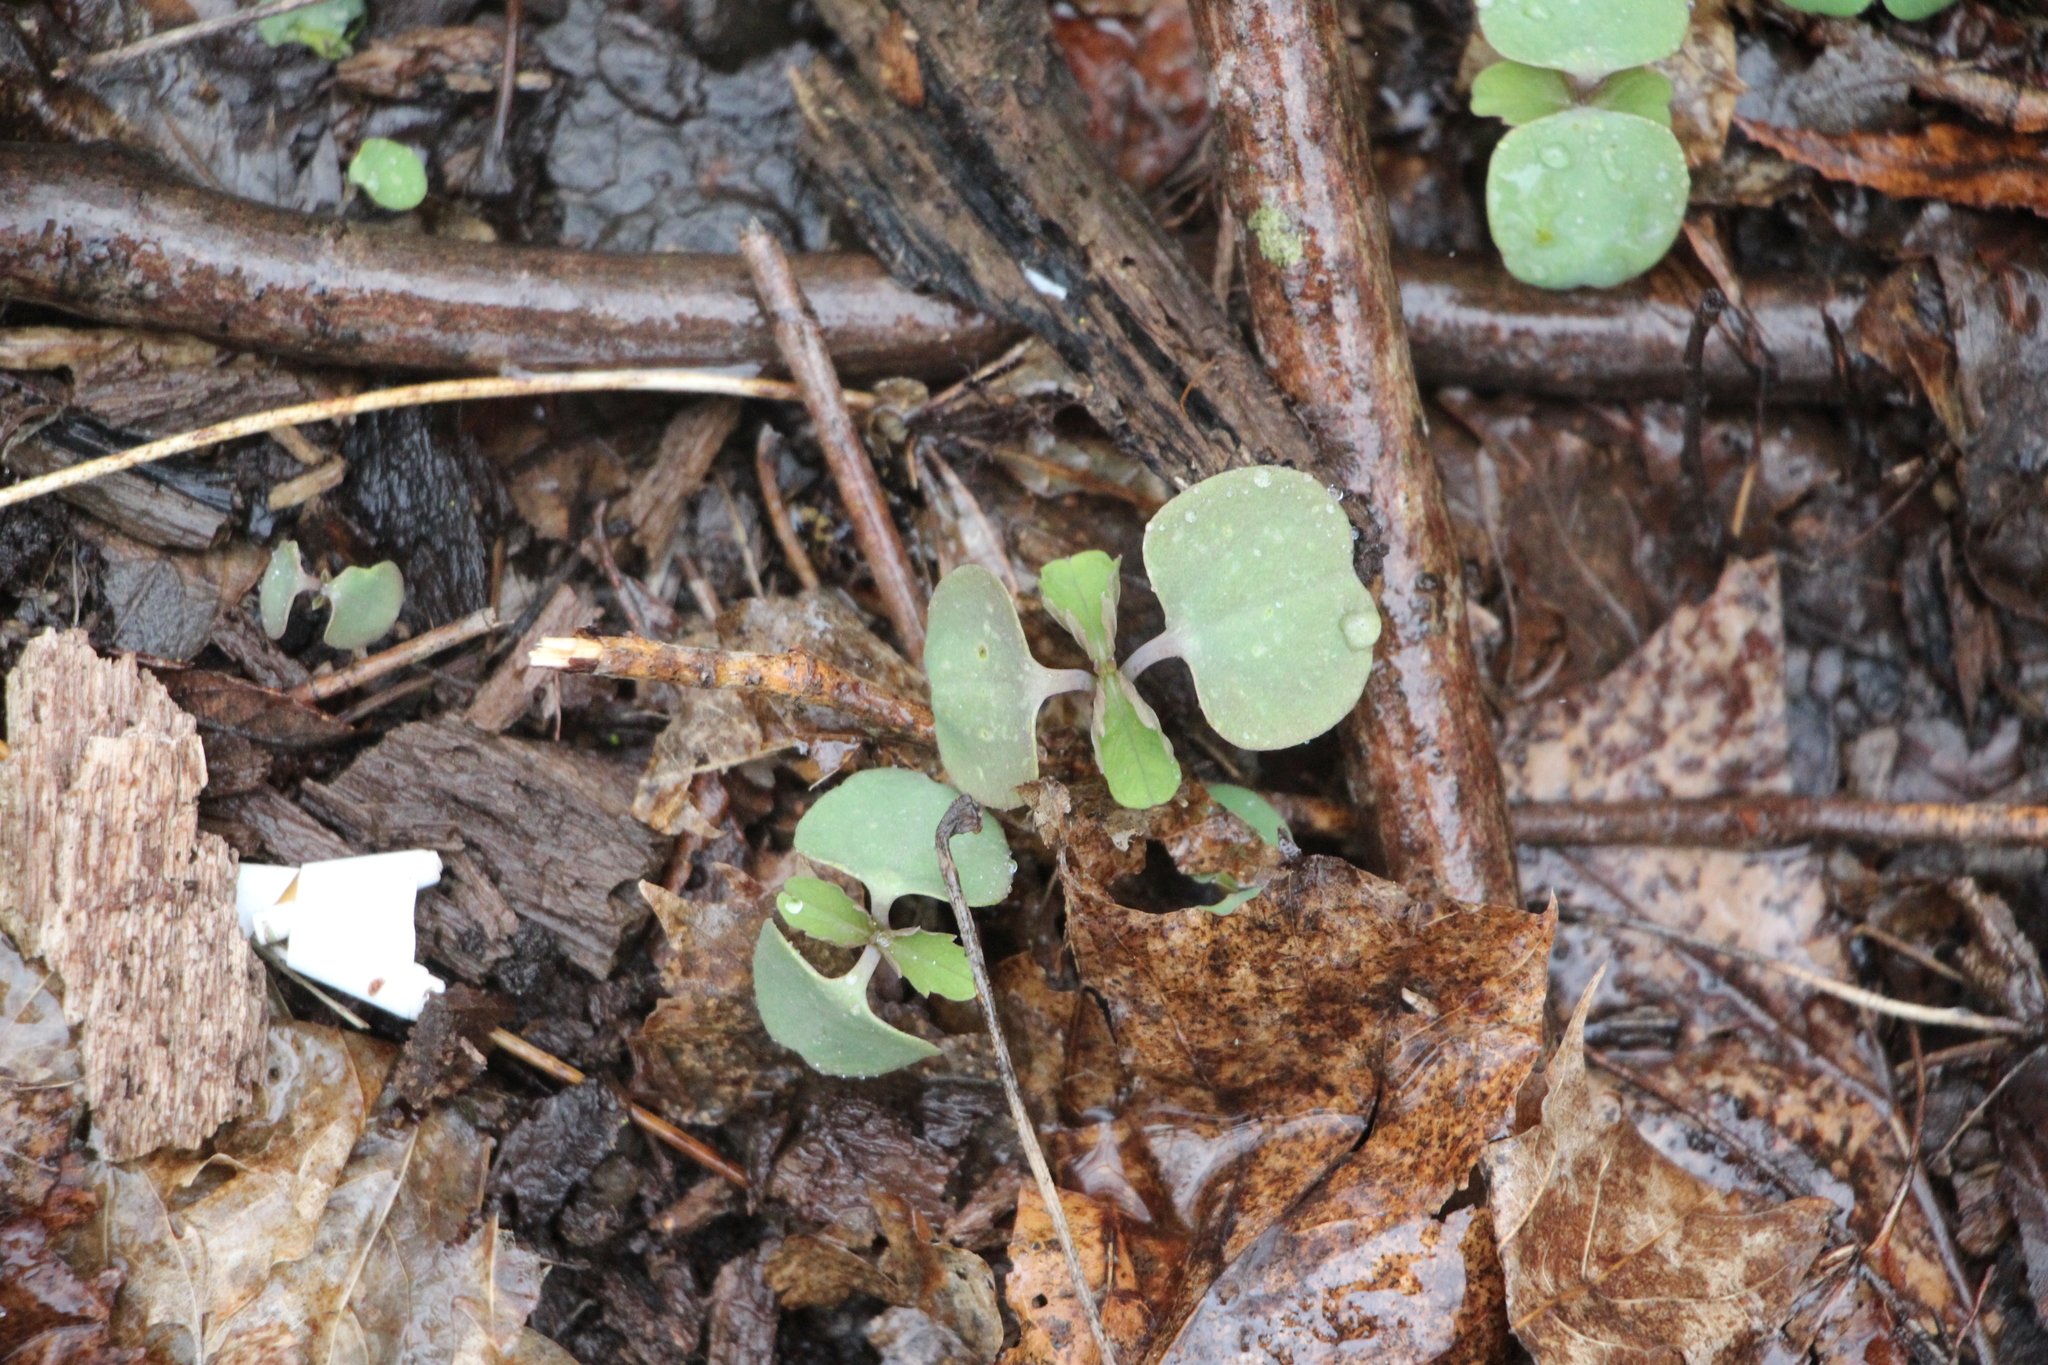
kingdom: Plantae
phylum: Tracheophyta
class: Magnoliopsida
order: Ericales
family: Balsaminaceae
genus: Impatiens
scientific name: Impatiens
